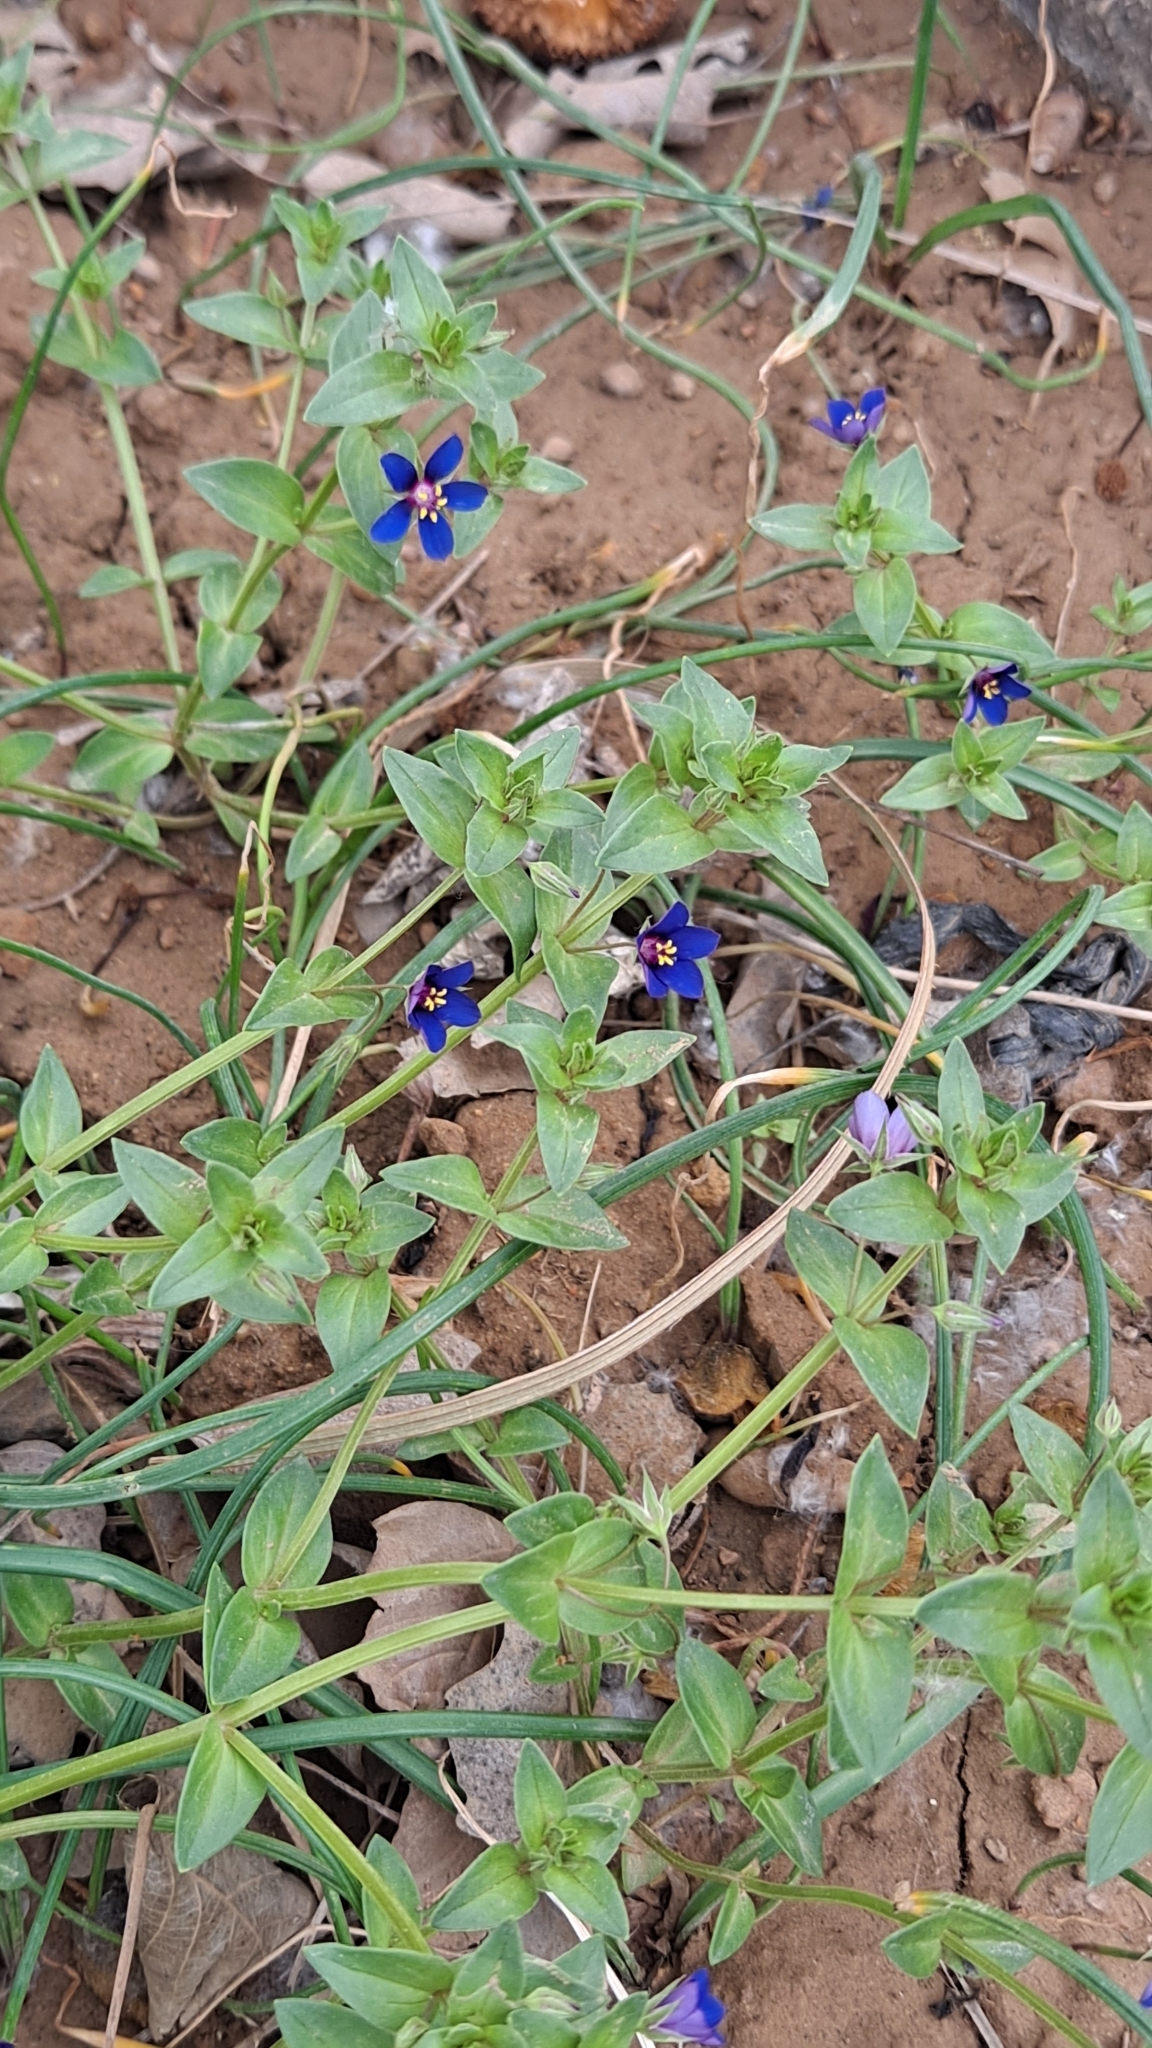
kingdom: Plantae
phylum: Tracheophyta
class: Magnoliopsida
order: Ericales
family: Primulaceae
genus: Lysimachia
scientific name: Lysimachia foemina
